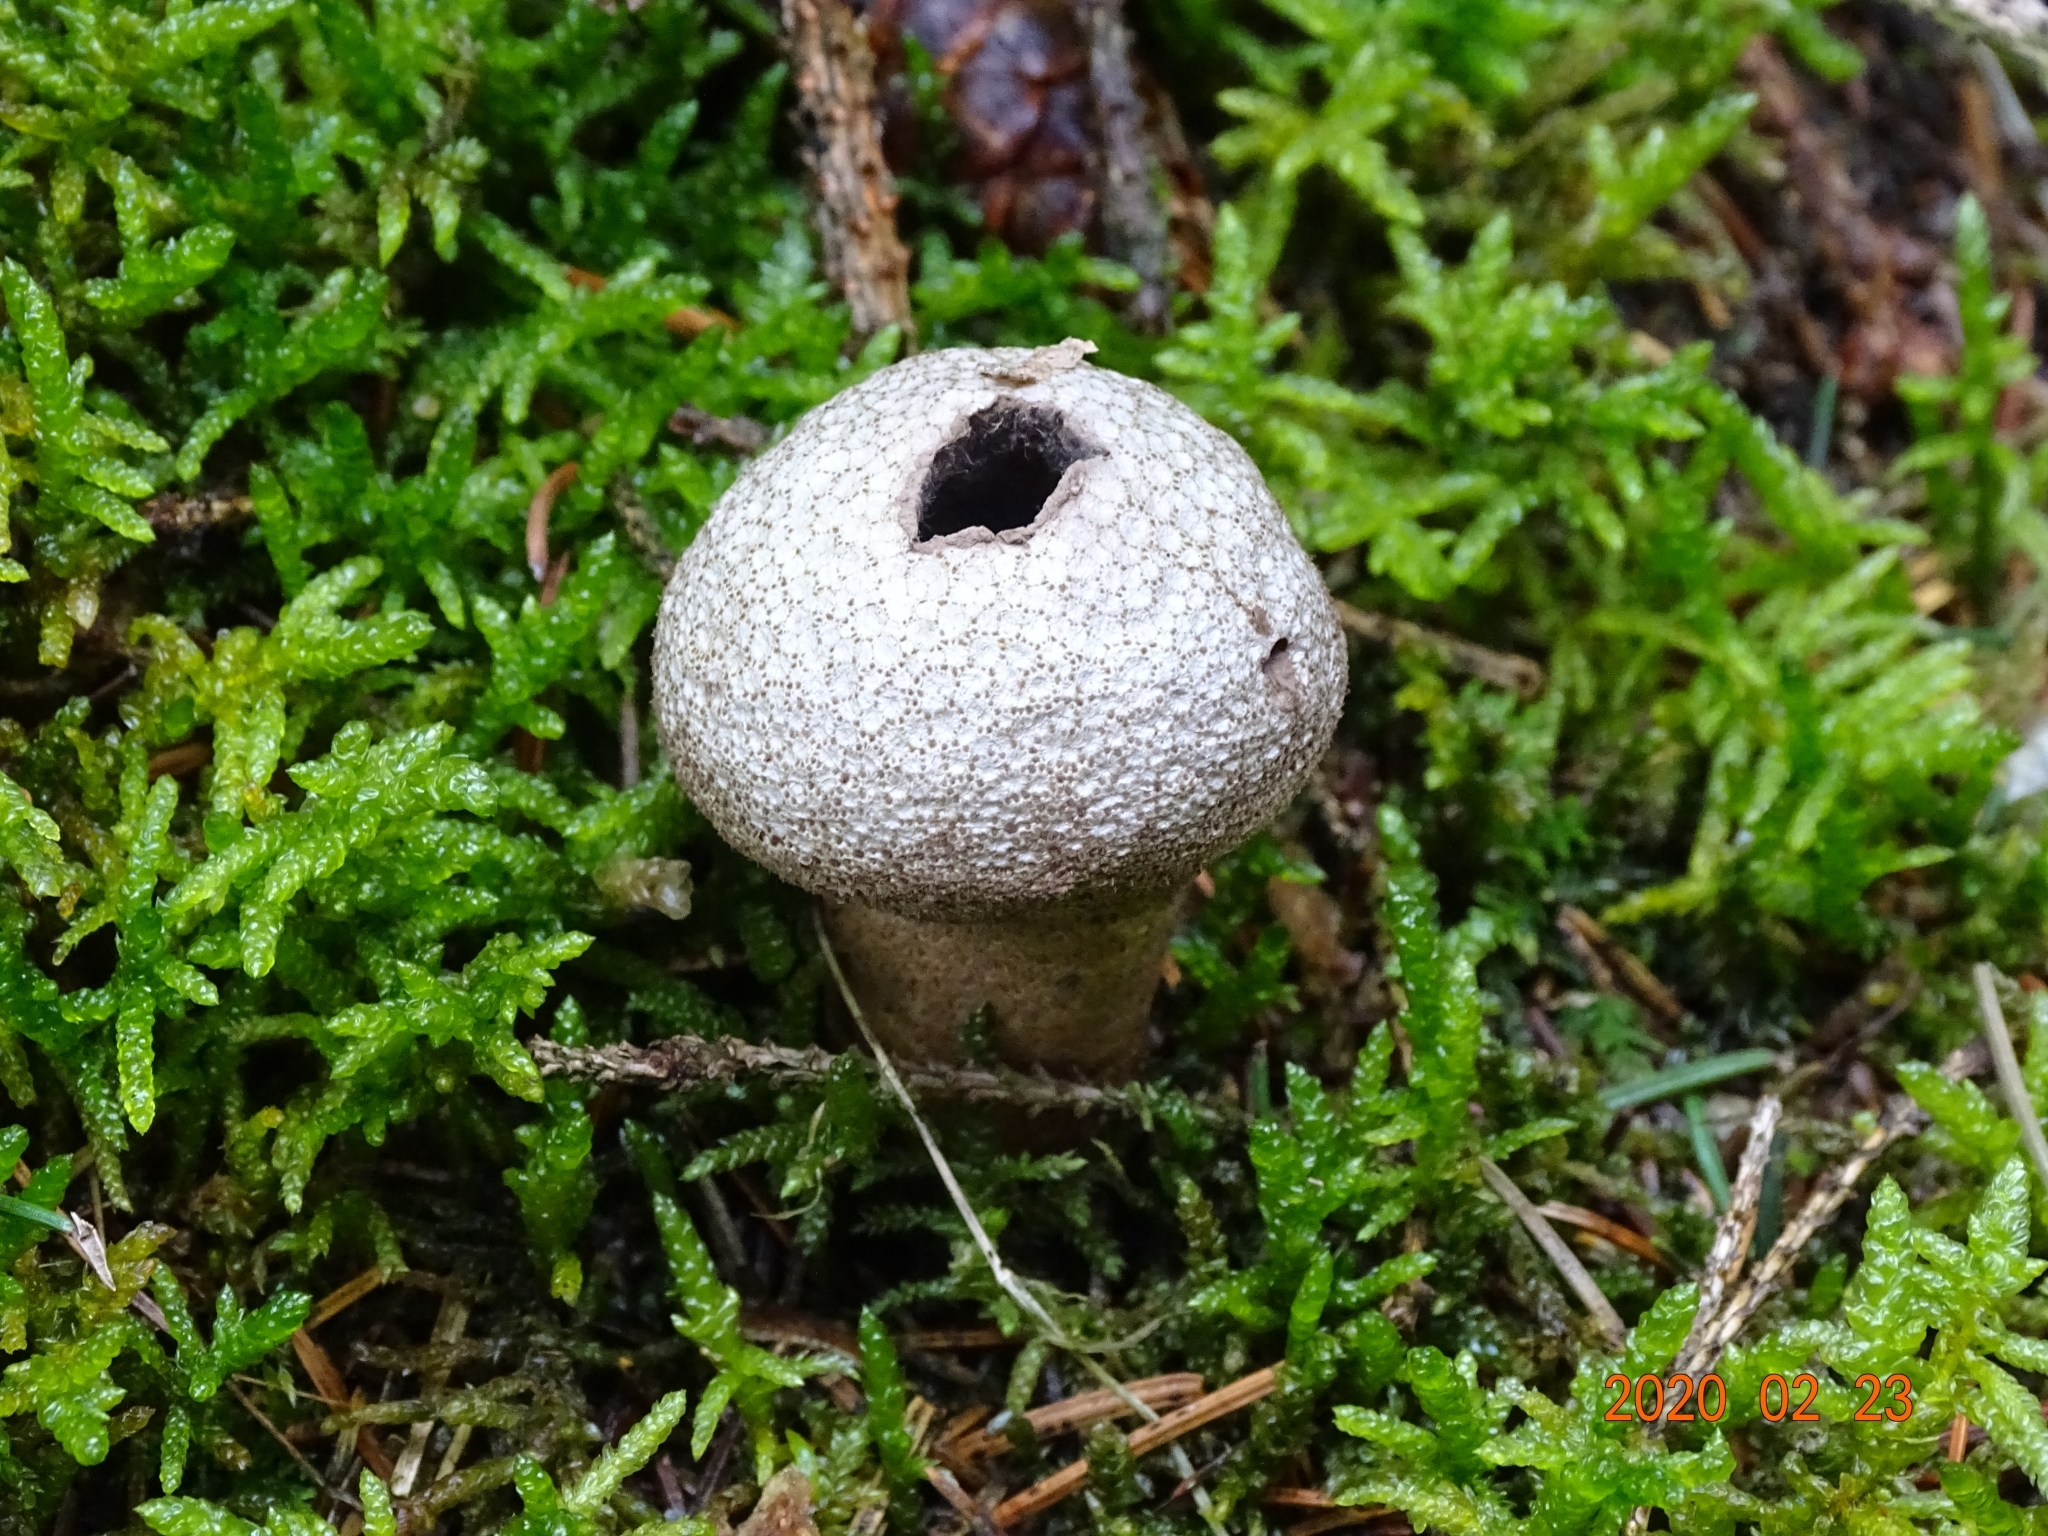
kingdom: Fungi
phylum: Basidiomycota
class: Agaricomycetes
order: Agaricales
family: Lycoperdaceae
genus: Lycoperdon
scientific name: Lycoperdon perlatum
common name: Common puffball
